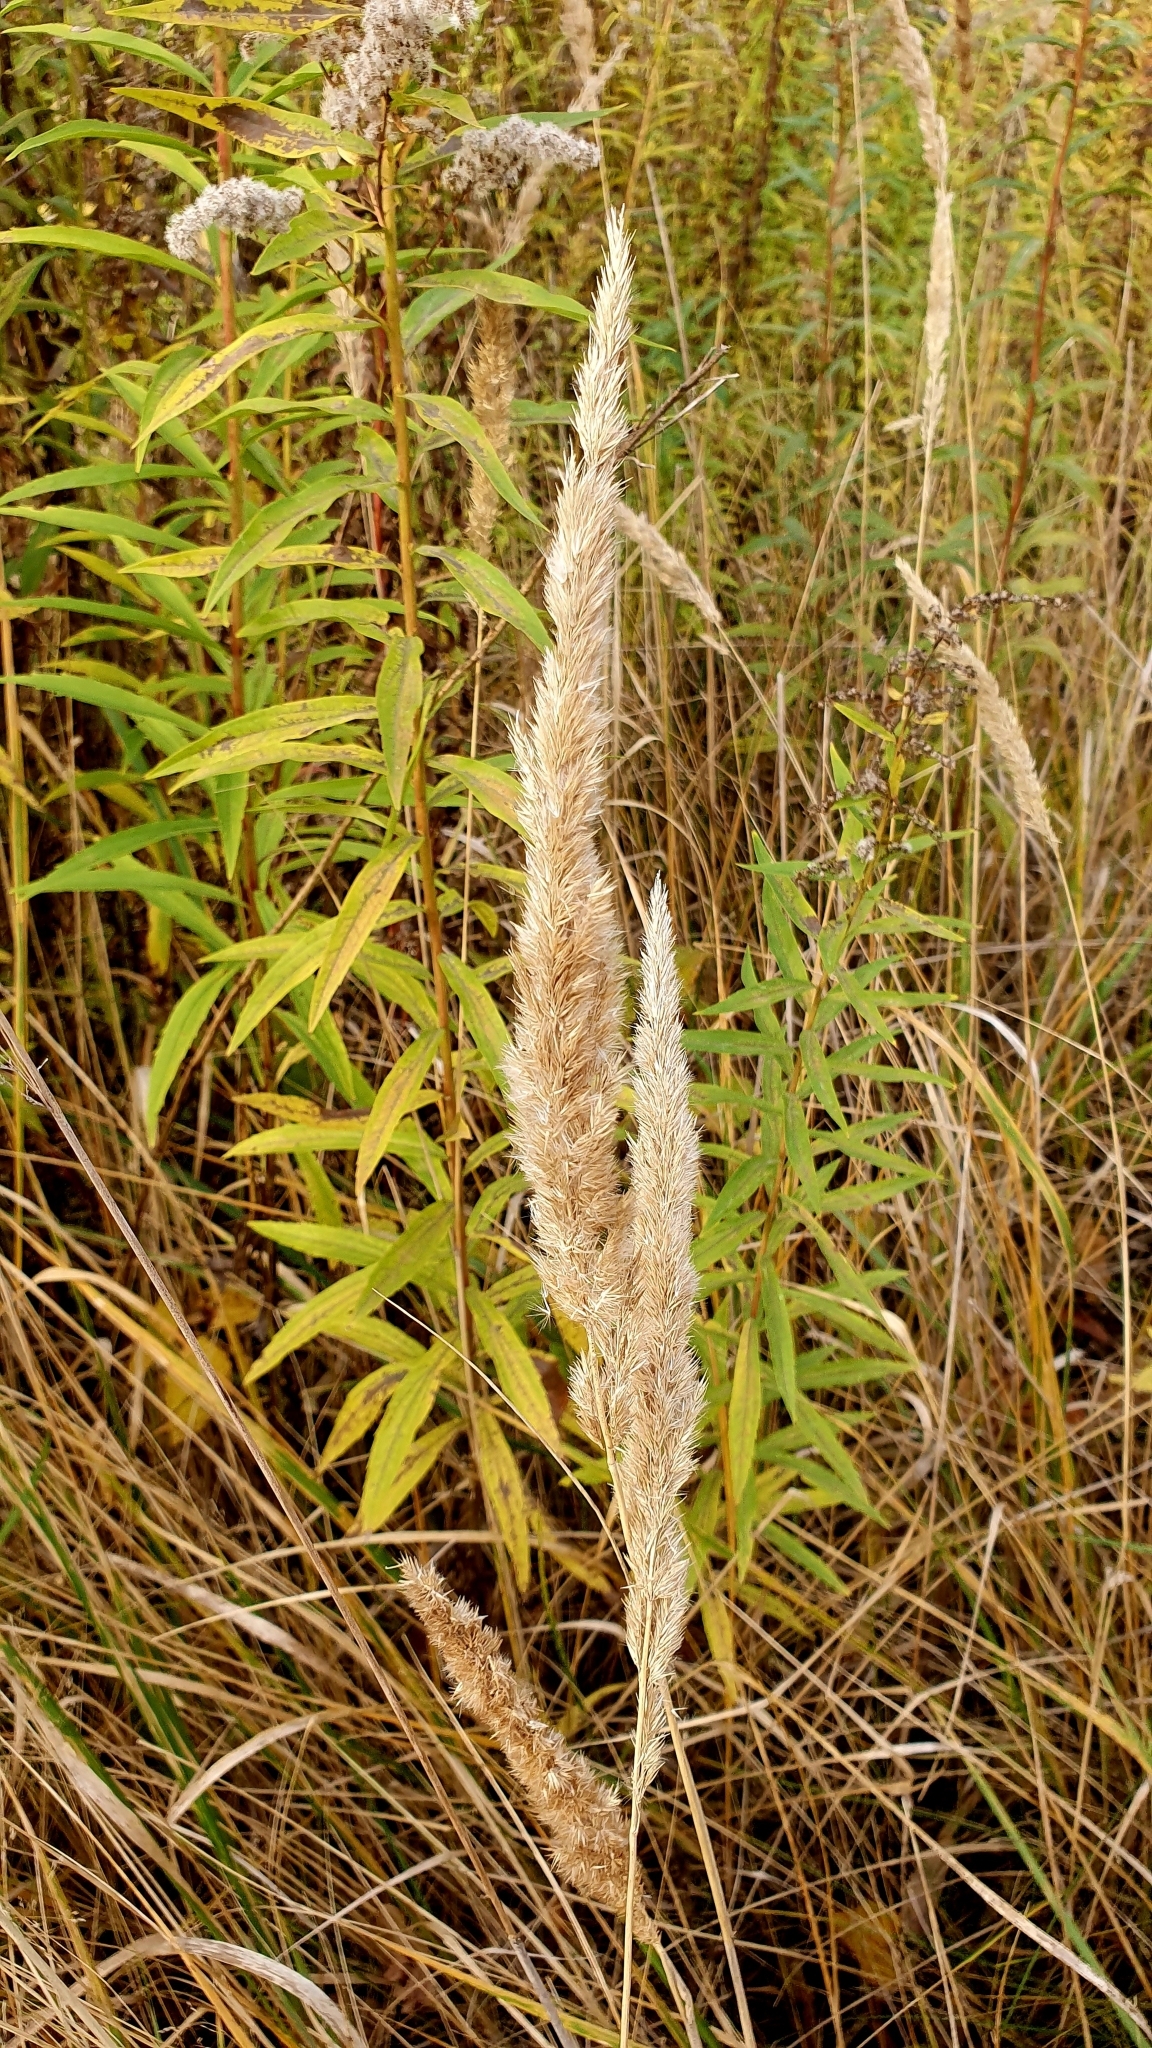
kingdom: Plantae
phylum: Tracheophyta
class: Liliopsida
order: Poales
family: Poaceae
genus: Calamagrostis
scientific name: Calamagrostis epigejos
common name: Wood small-reed
